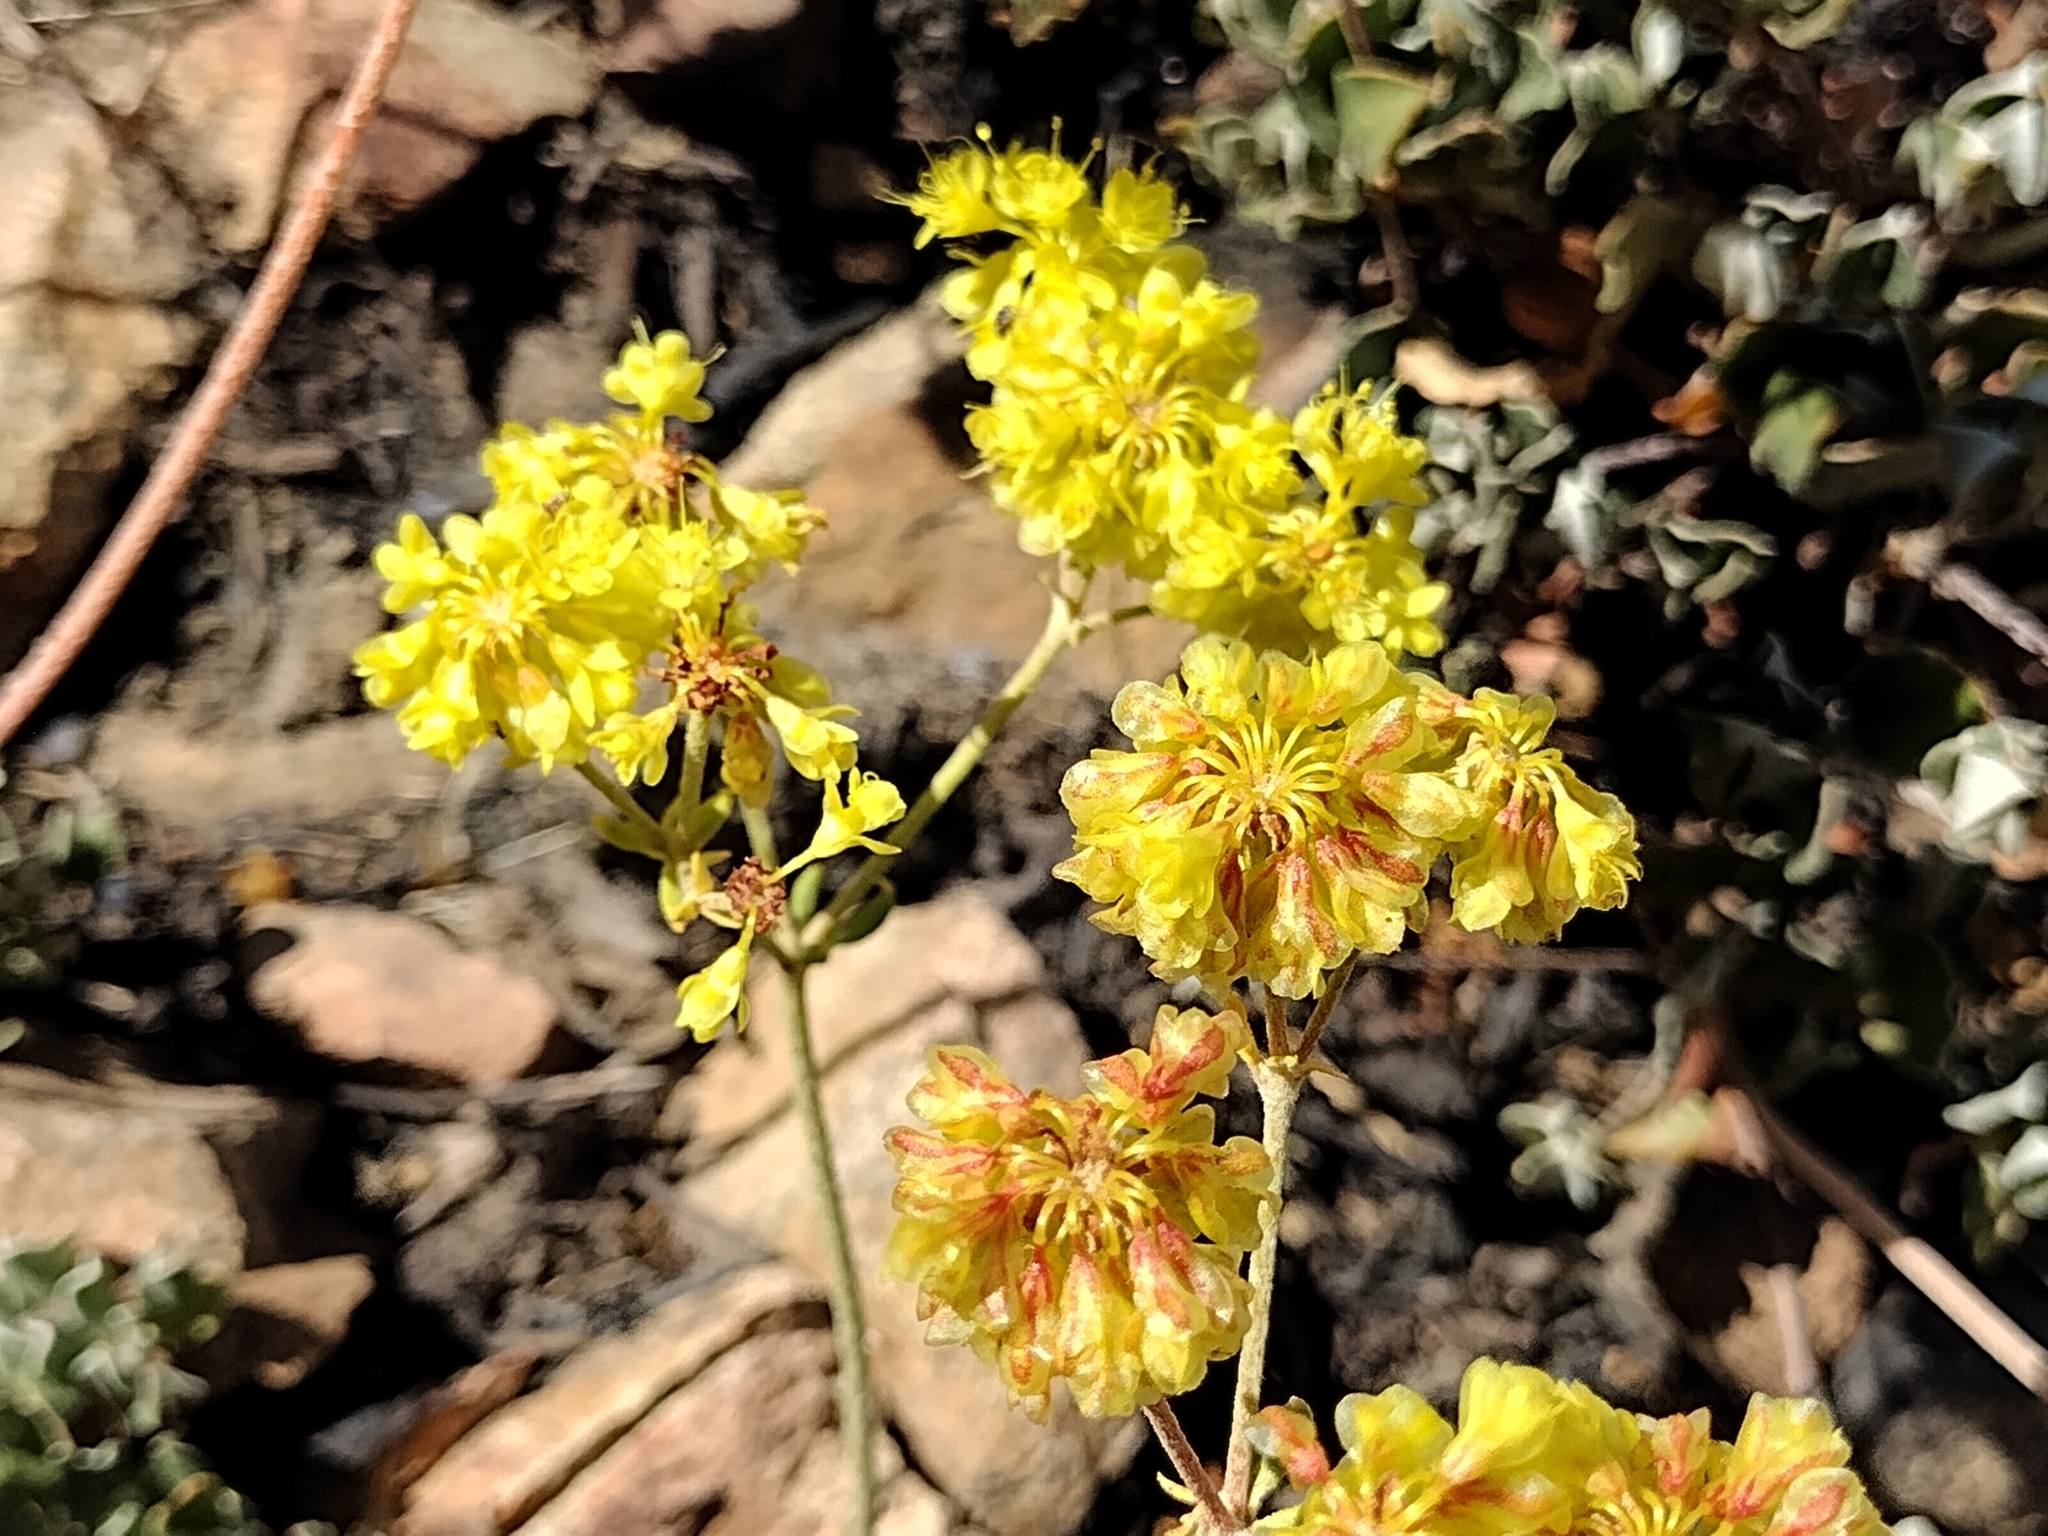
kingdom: Plantae
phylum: Tracheophyta
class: Magnoliopsida
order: Caryophyllales
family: Polygonaceae
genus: Eriogonum
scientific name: Eriogonum umbellatum
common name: Sulfur-buckwheat
